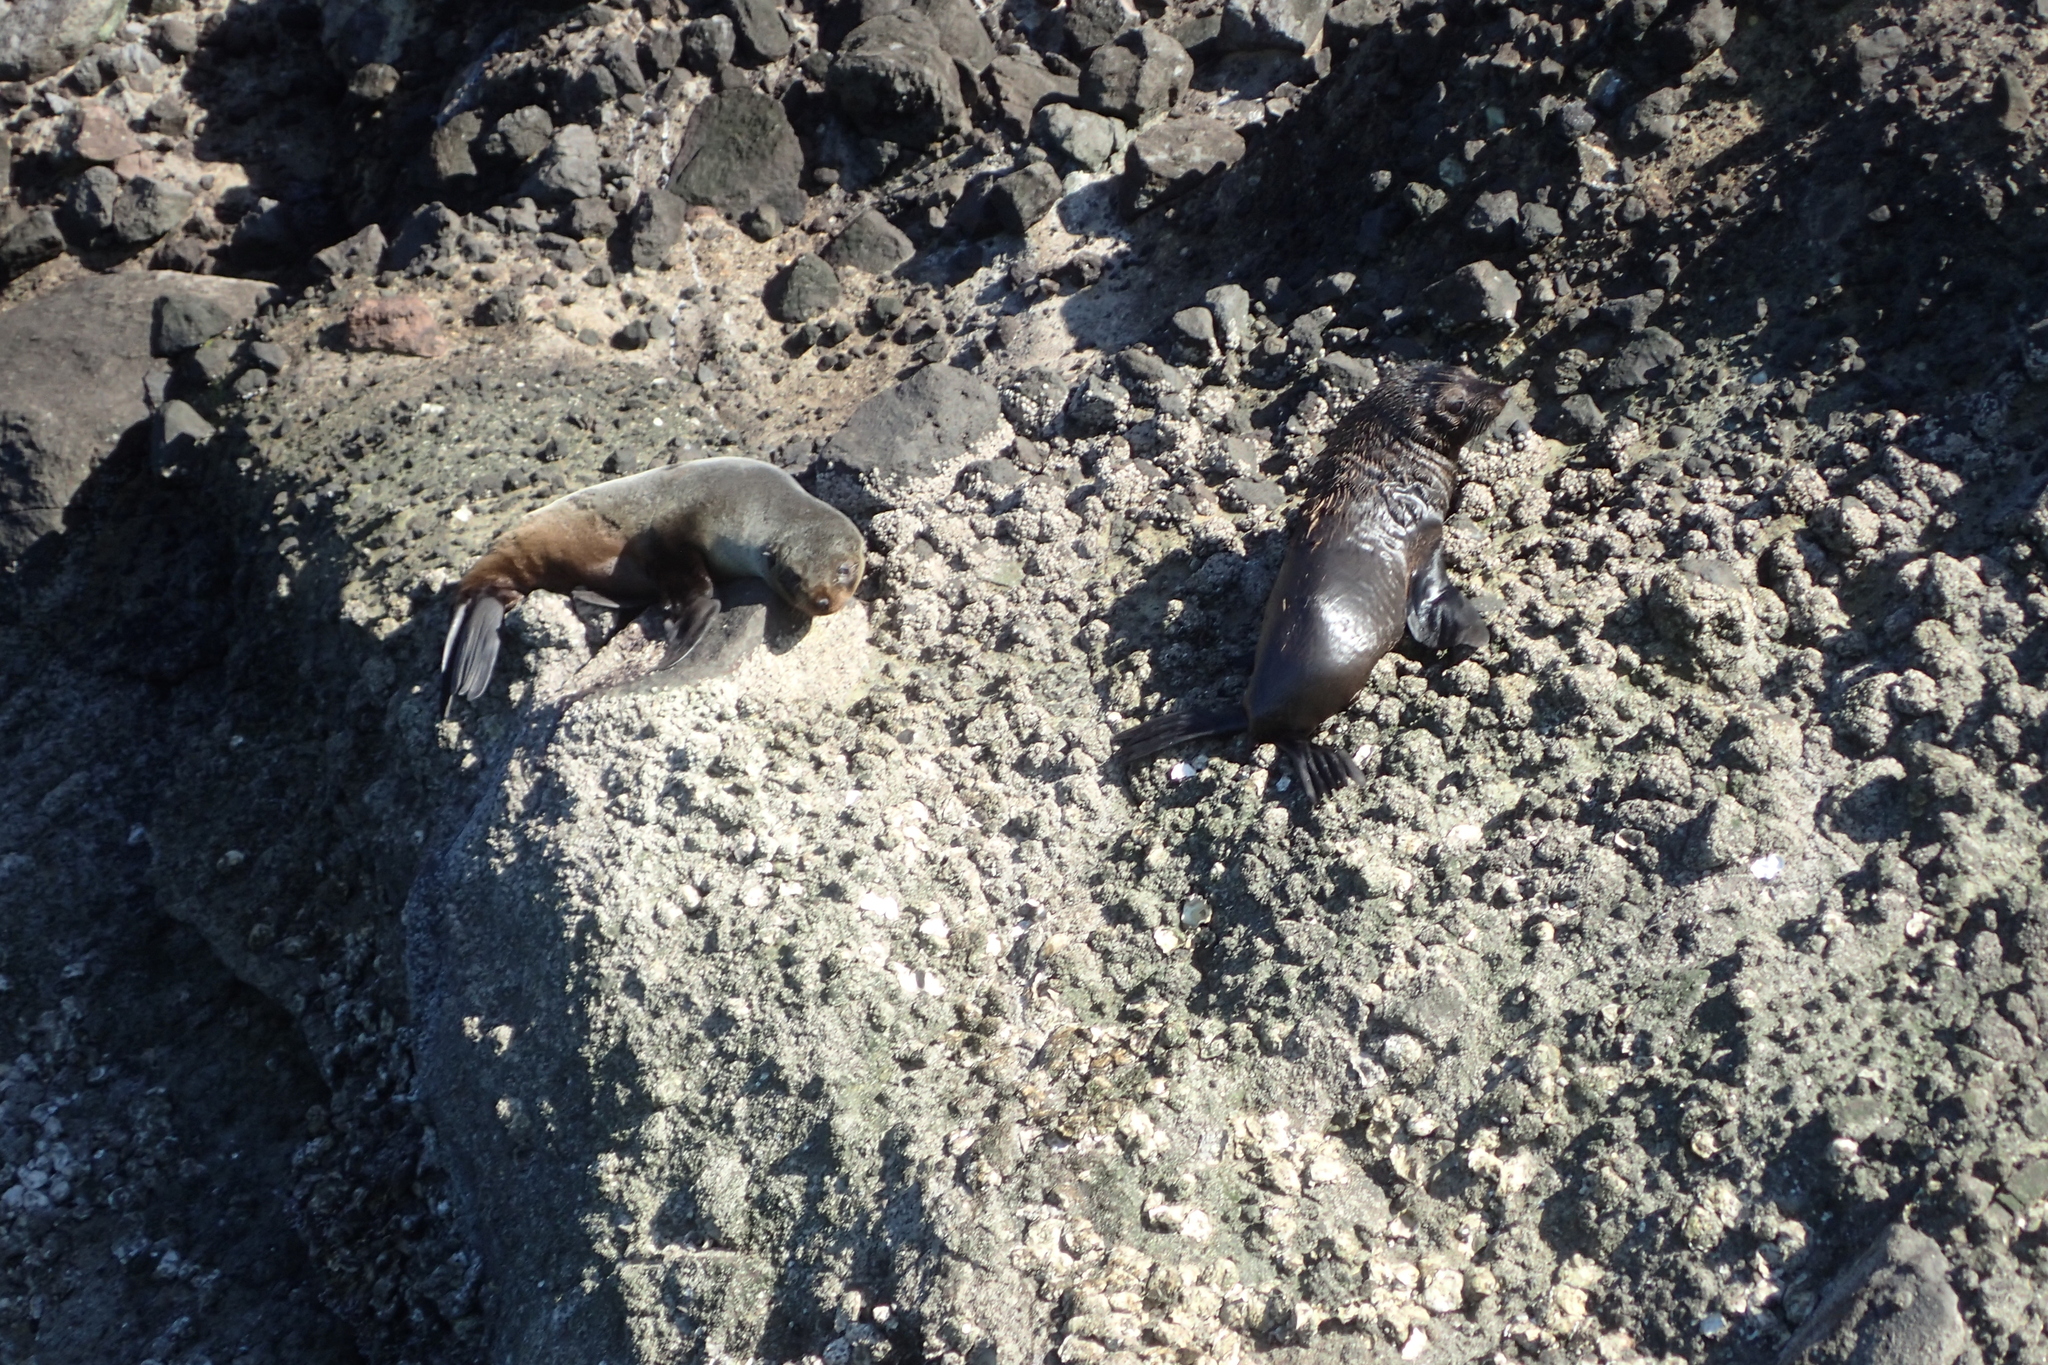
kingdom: Animalia
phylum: Chordata
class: Mammalia
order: Carnivora
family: Otariidae
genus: Arctocephalus
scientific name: Arctocephalus forsteri
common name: New zealand fur seal
